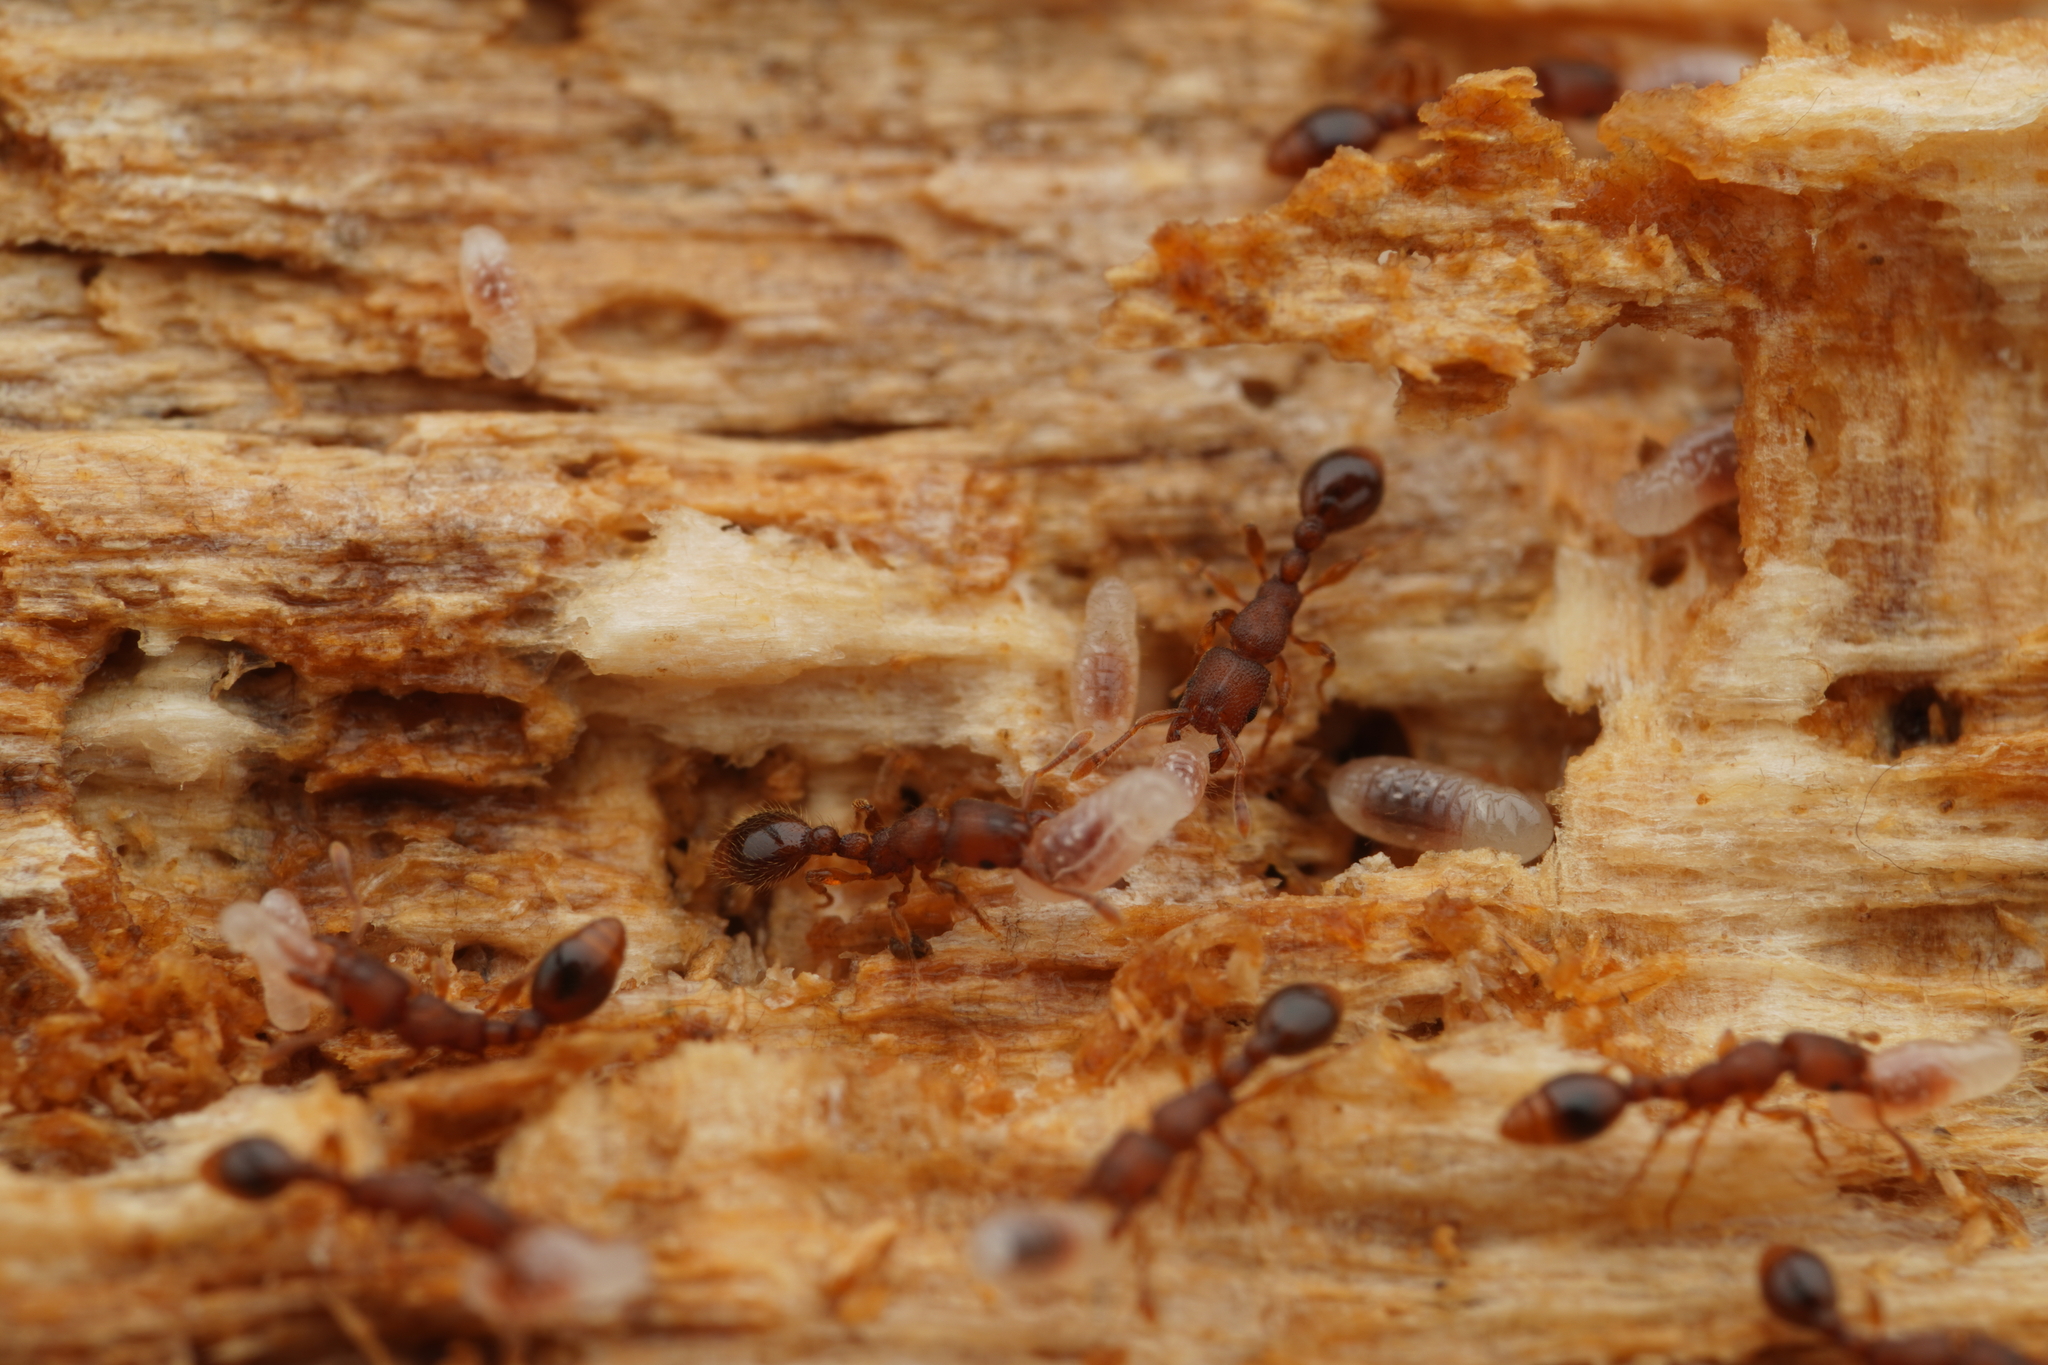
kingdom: Animalia
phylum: Arthropoda
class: Insecta
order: Hymenoptera
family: Formicidae
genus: Vollenhovia
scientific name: Vollenhovia emeryi
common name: Ant
